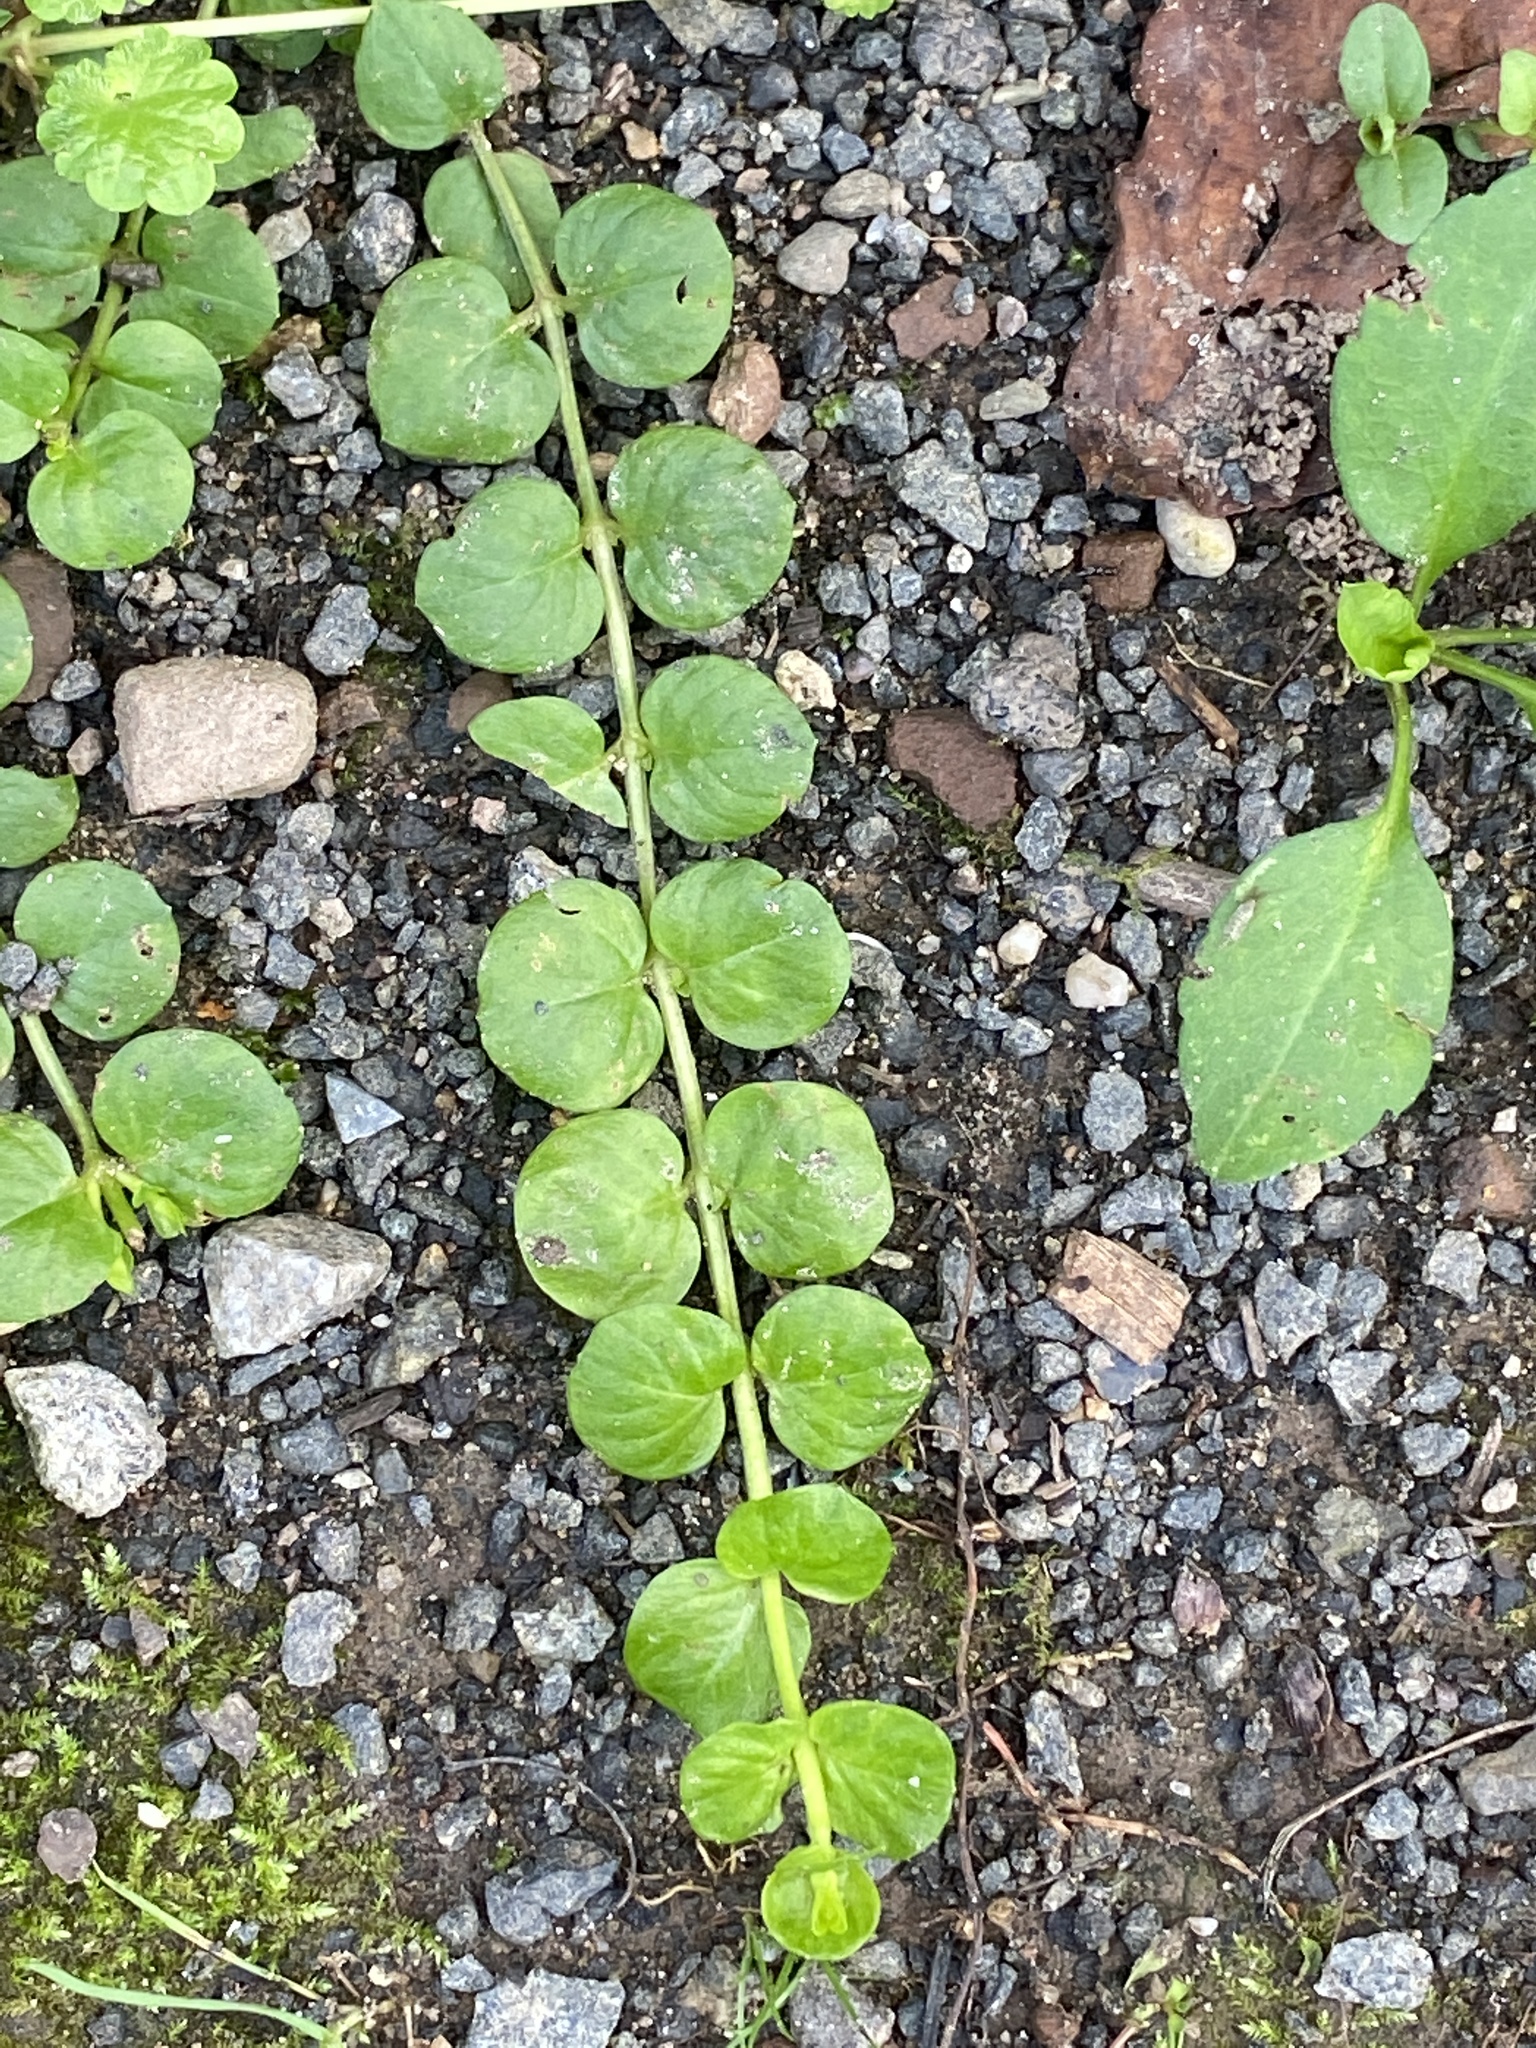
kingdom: Plantae
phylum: Tracheophyta
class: Magnoliopsida
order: Ericales
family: Primulaceae
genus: Lysimachia
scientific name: Lysimachia nummularia
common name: Moneywort
